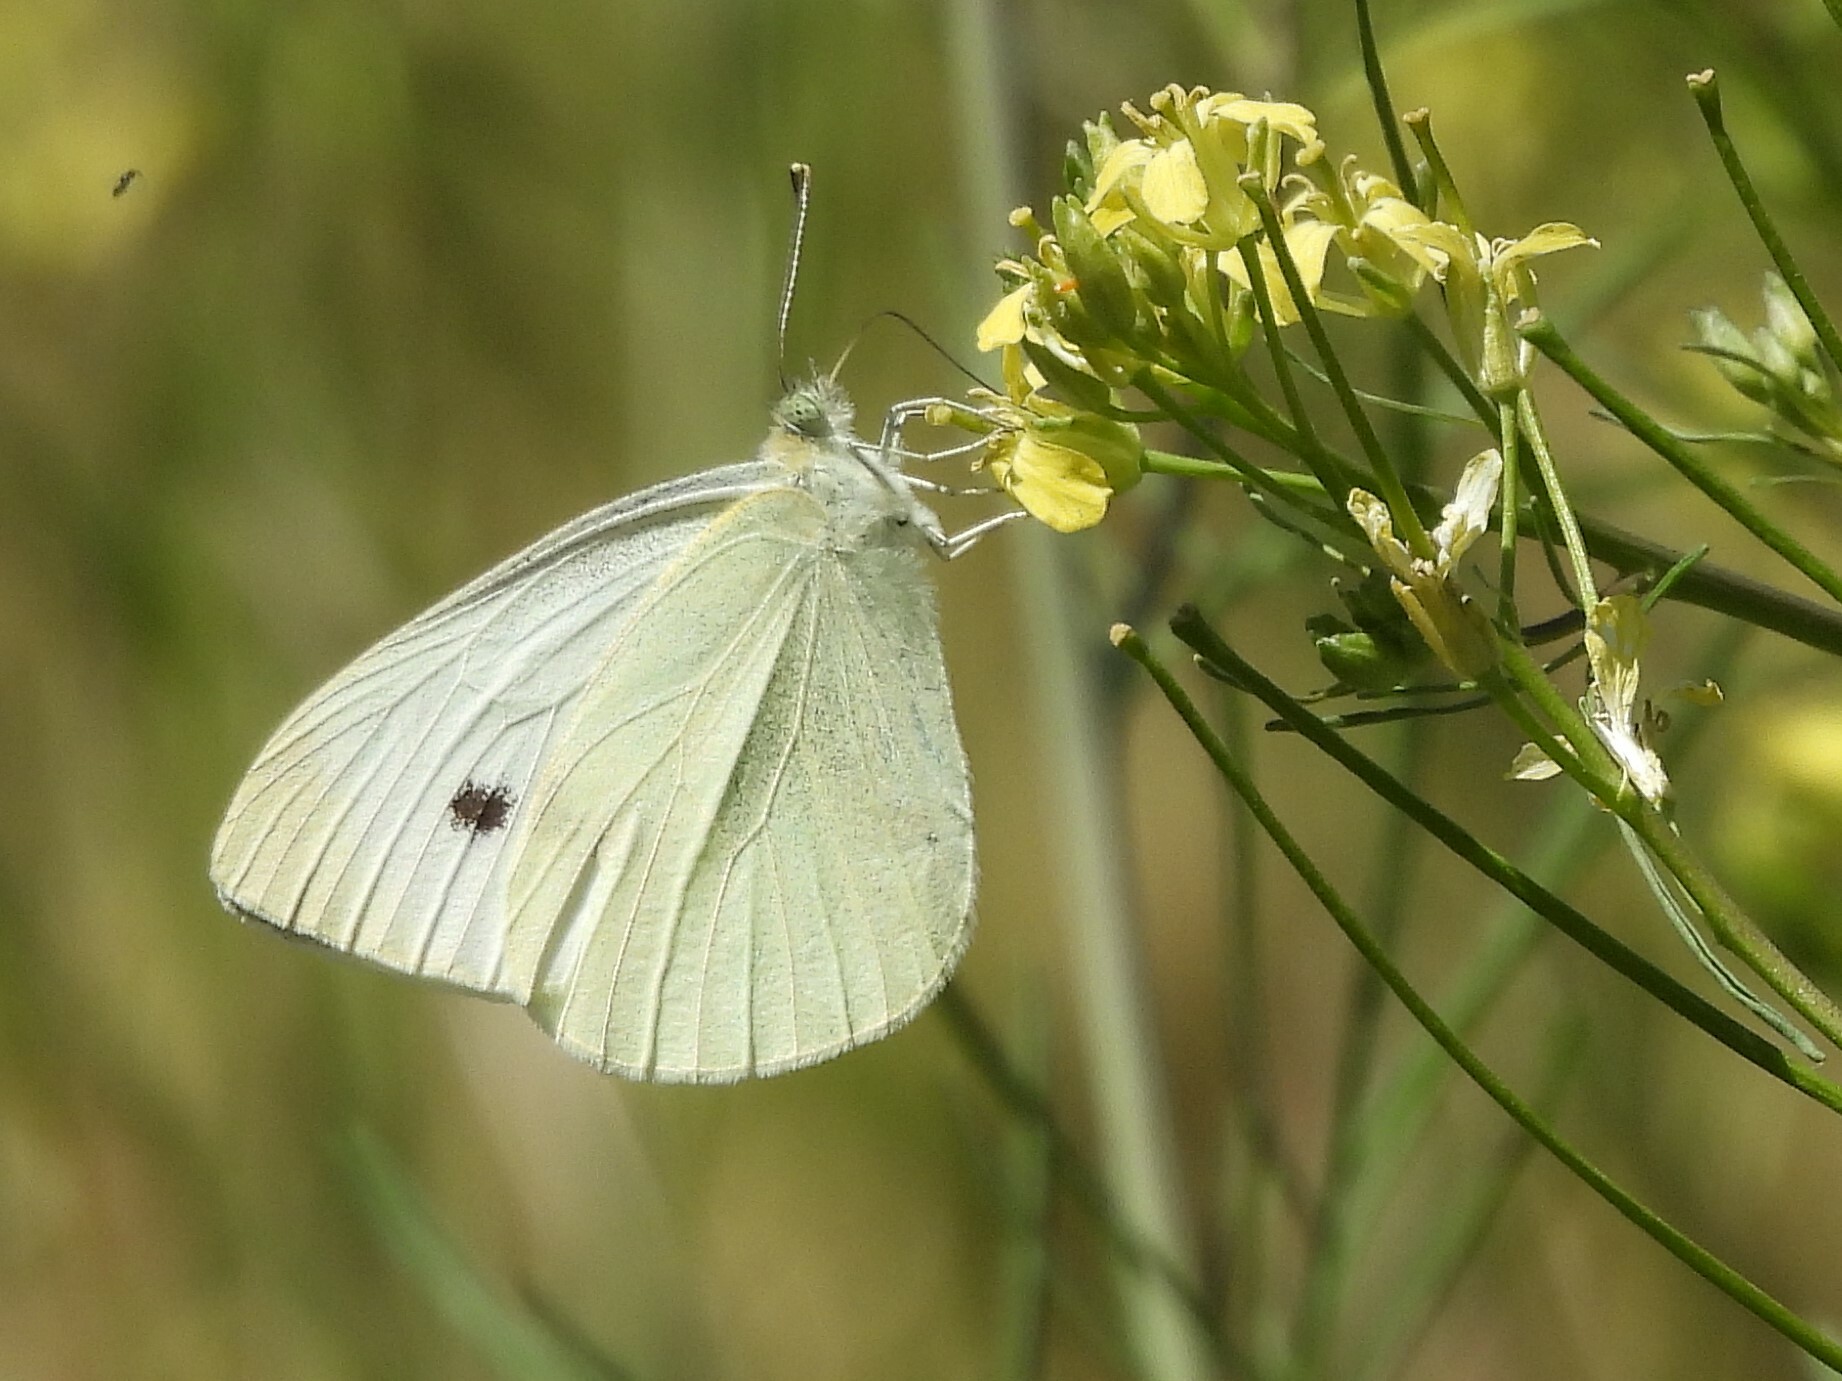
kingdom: Animalia
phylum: Arthropoda
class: Insecta
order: Lepidoptera
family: Pieridae
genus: Pieris
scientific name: Pieris rapae
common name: Small white
